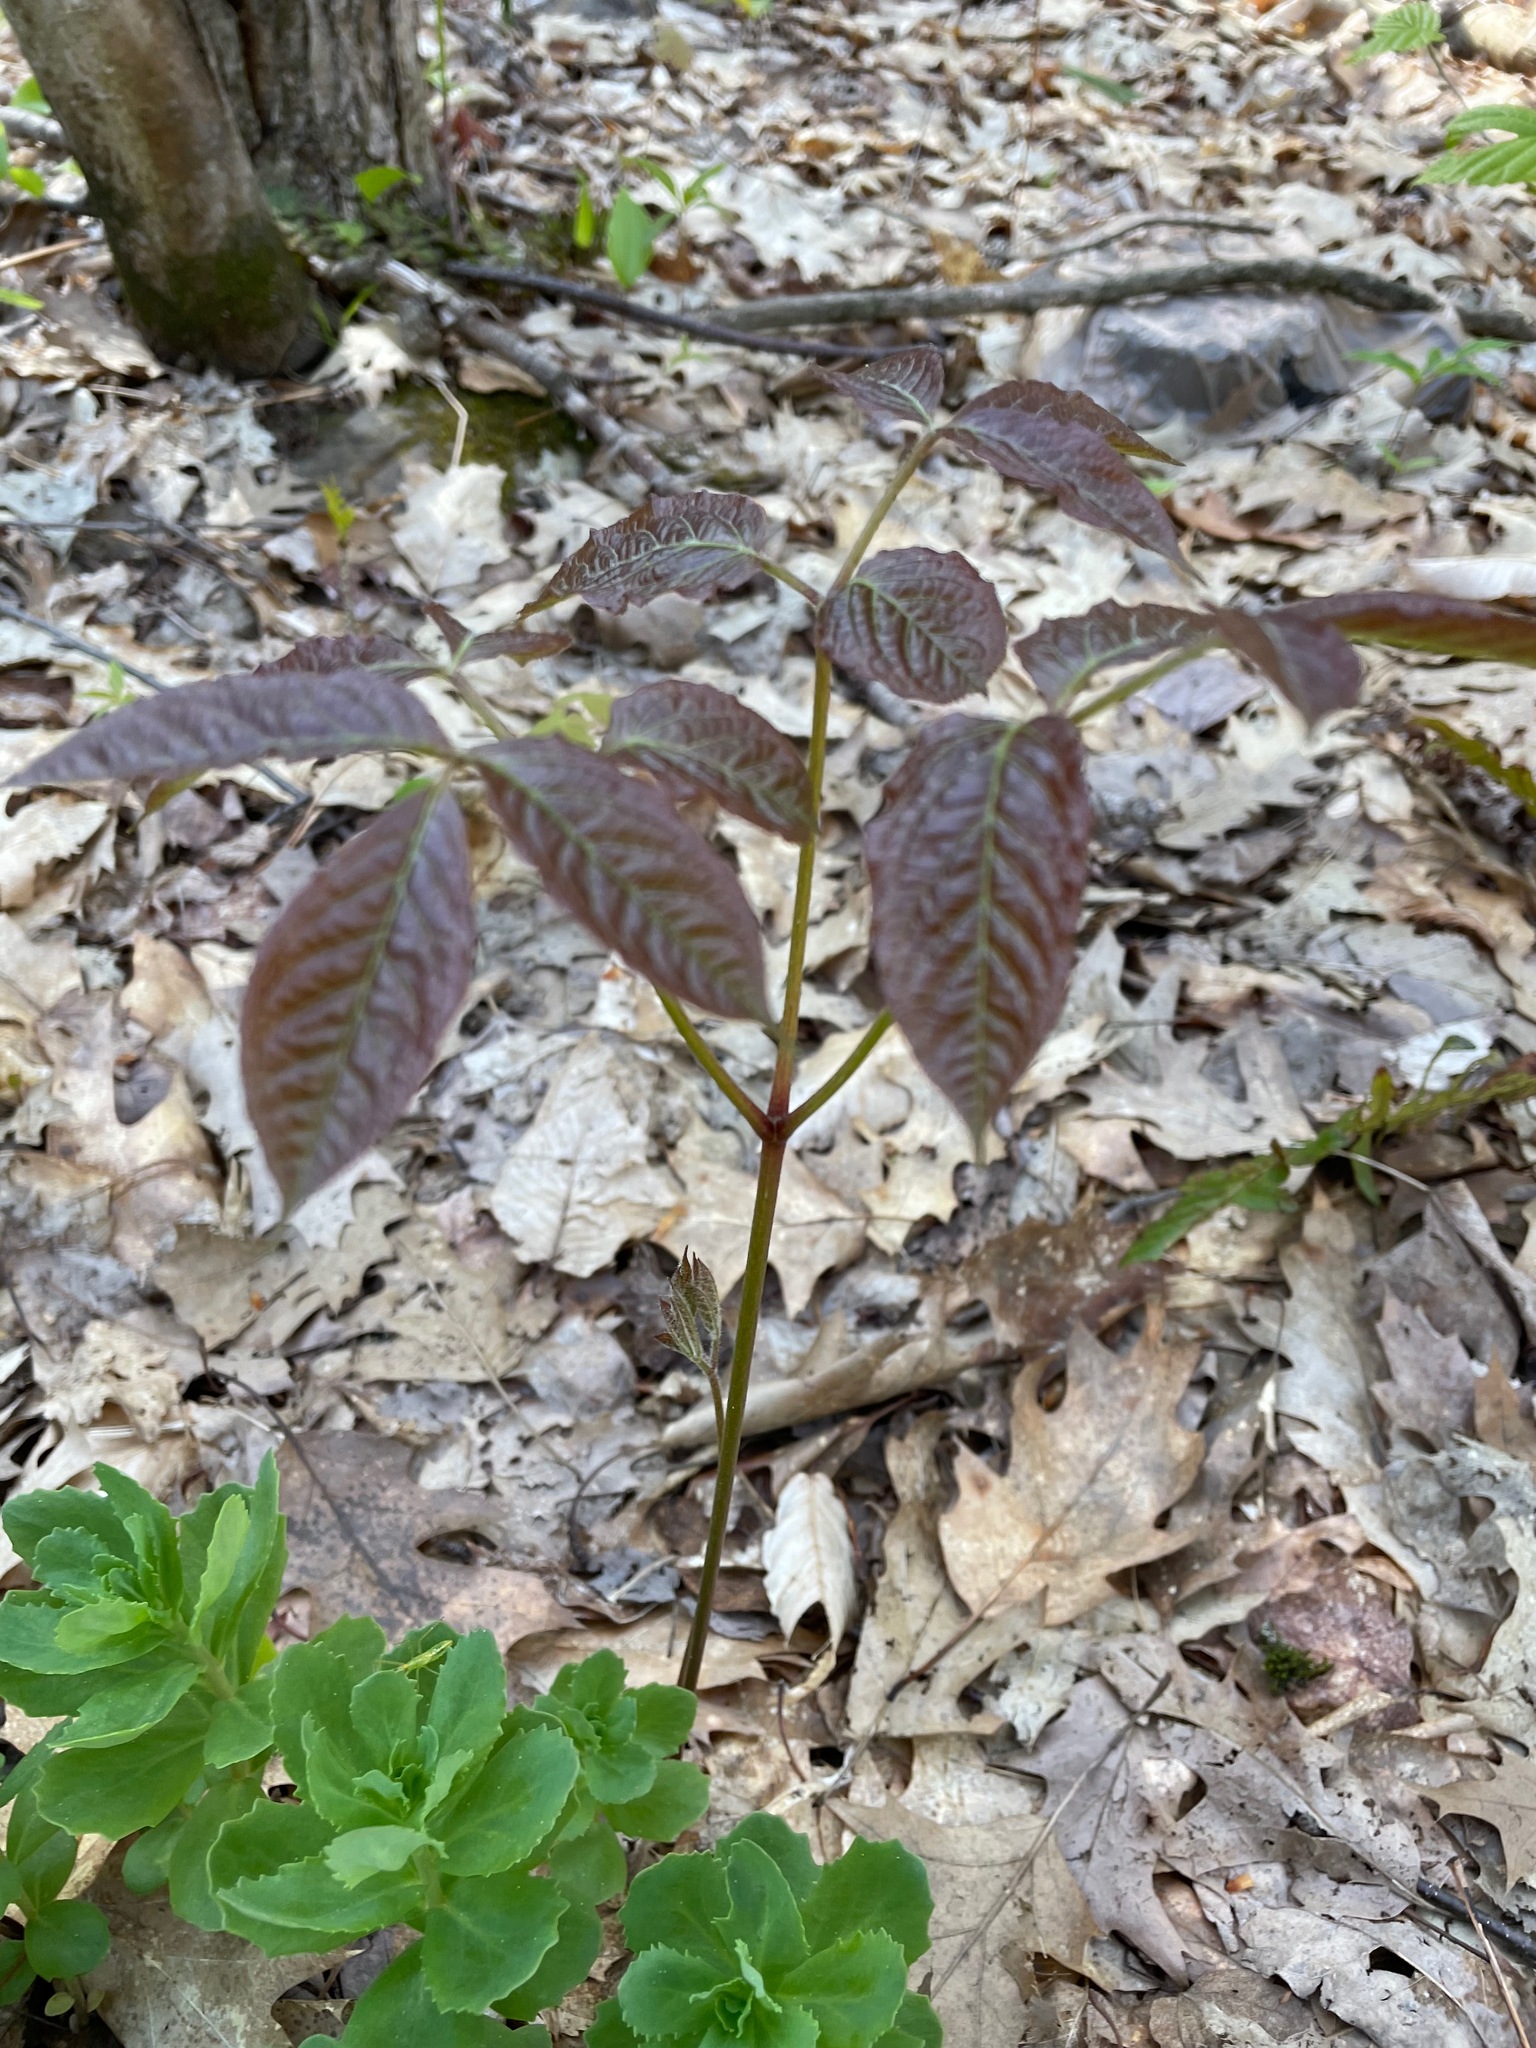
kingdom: Plantae
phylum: Tracheophyta
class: Magnoliopsida
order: Apiales
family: Araliaceae
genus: Aralia
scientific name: Aralia nudicaulis
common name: Wild sarsaparilla
